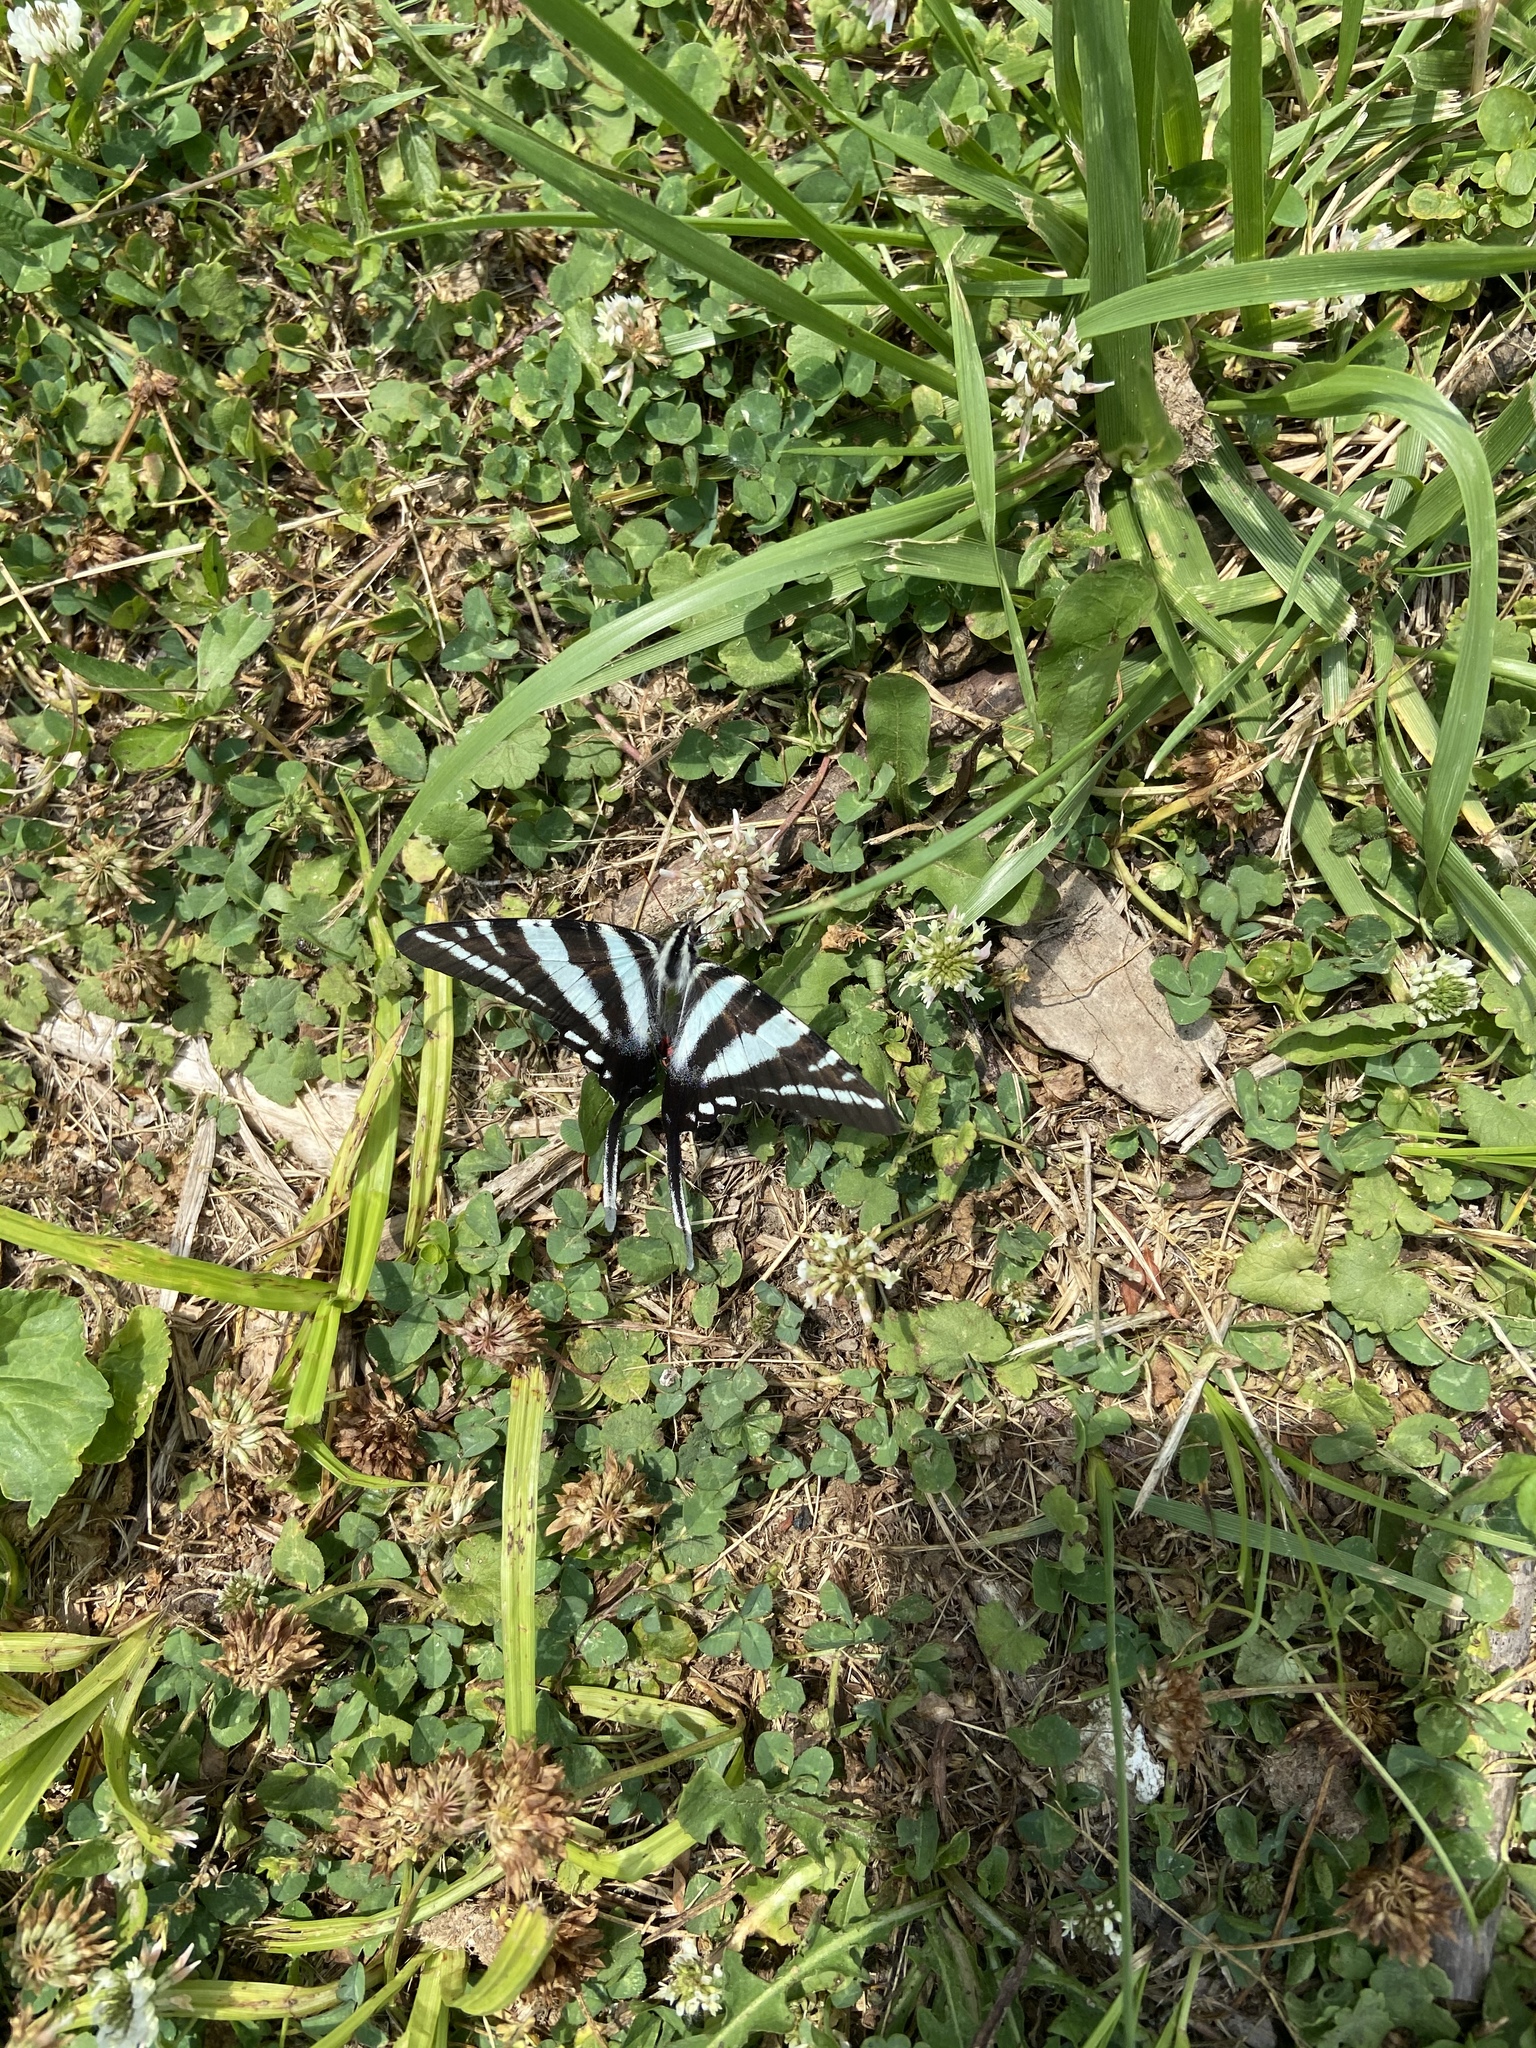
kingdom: Animalia
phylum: Arthropoda
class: Insecta
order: Lepidoptera
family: Papilionidae
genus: Protographium
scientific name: Protographium marcellus
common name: Zebra swallowtail
